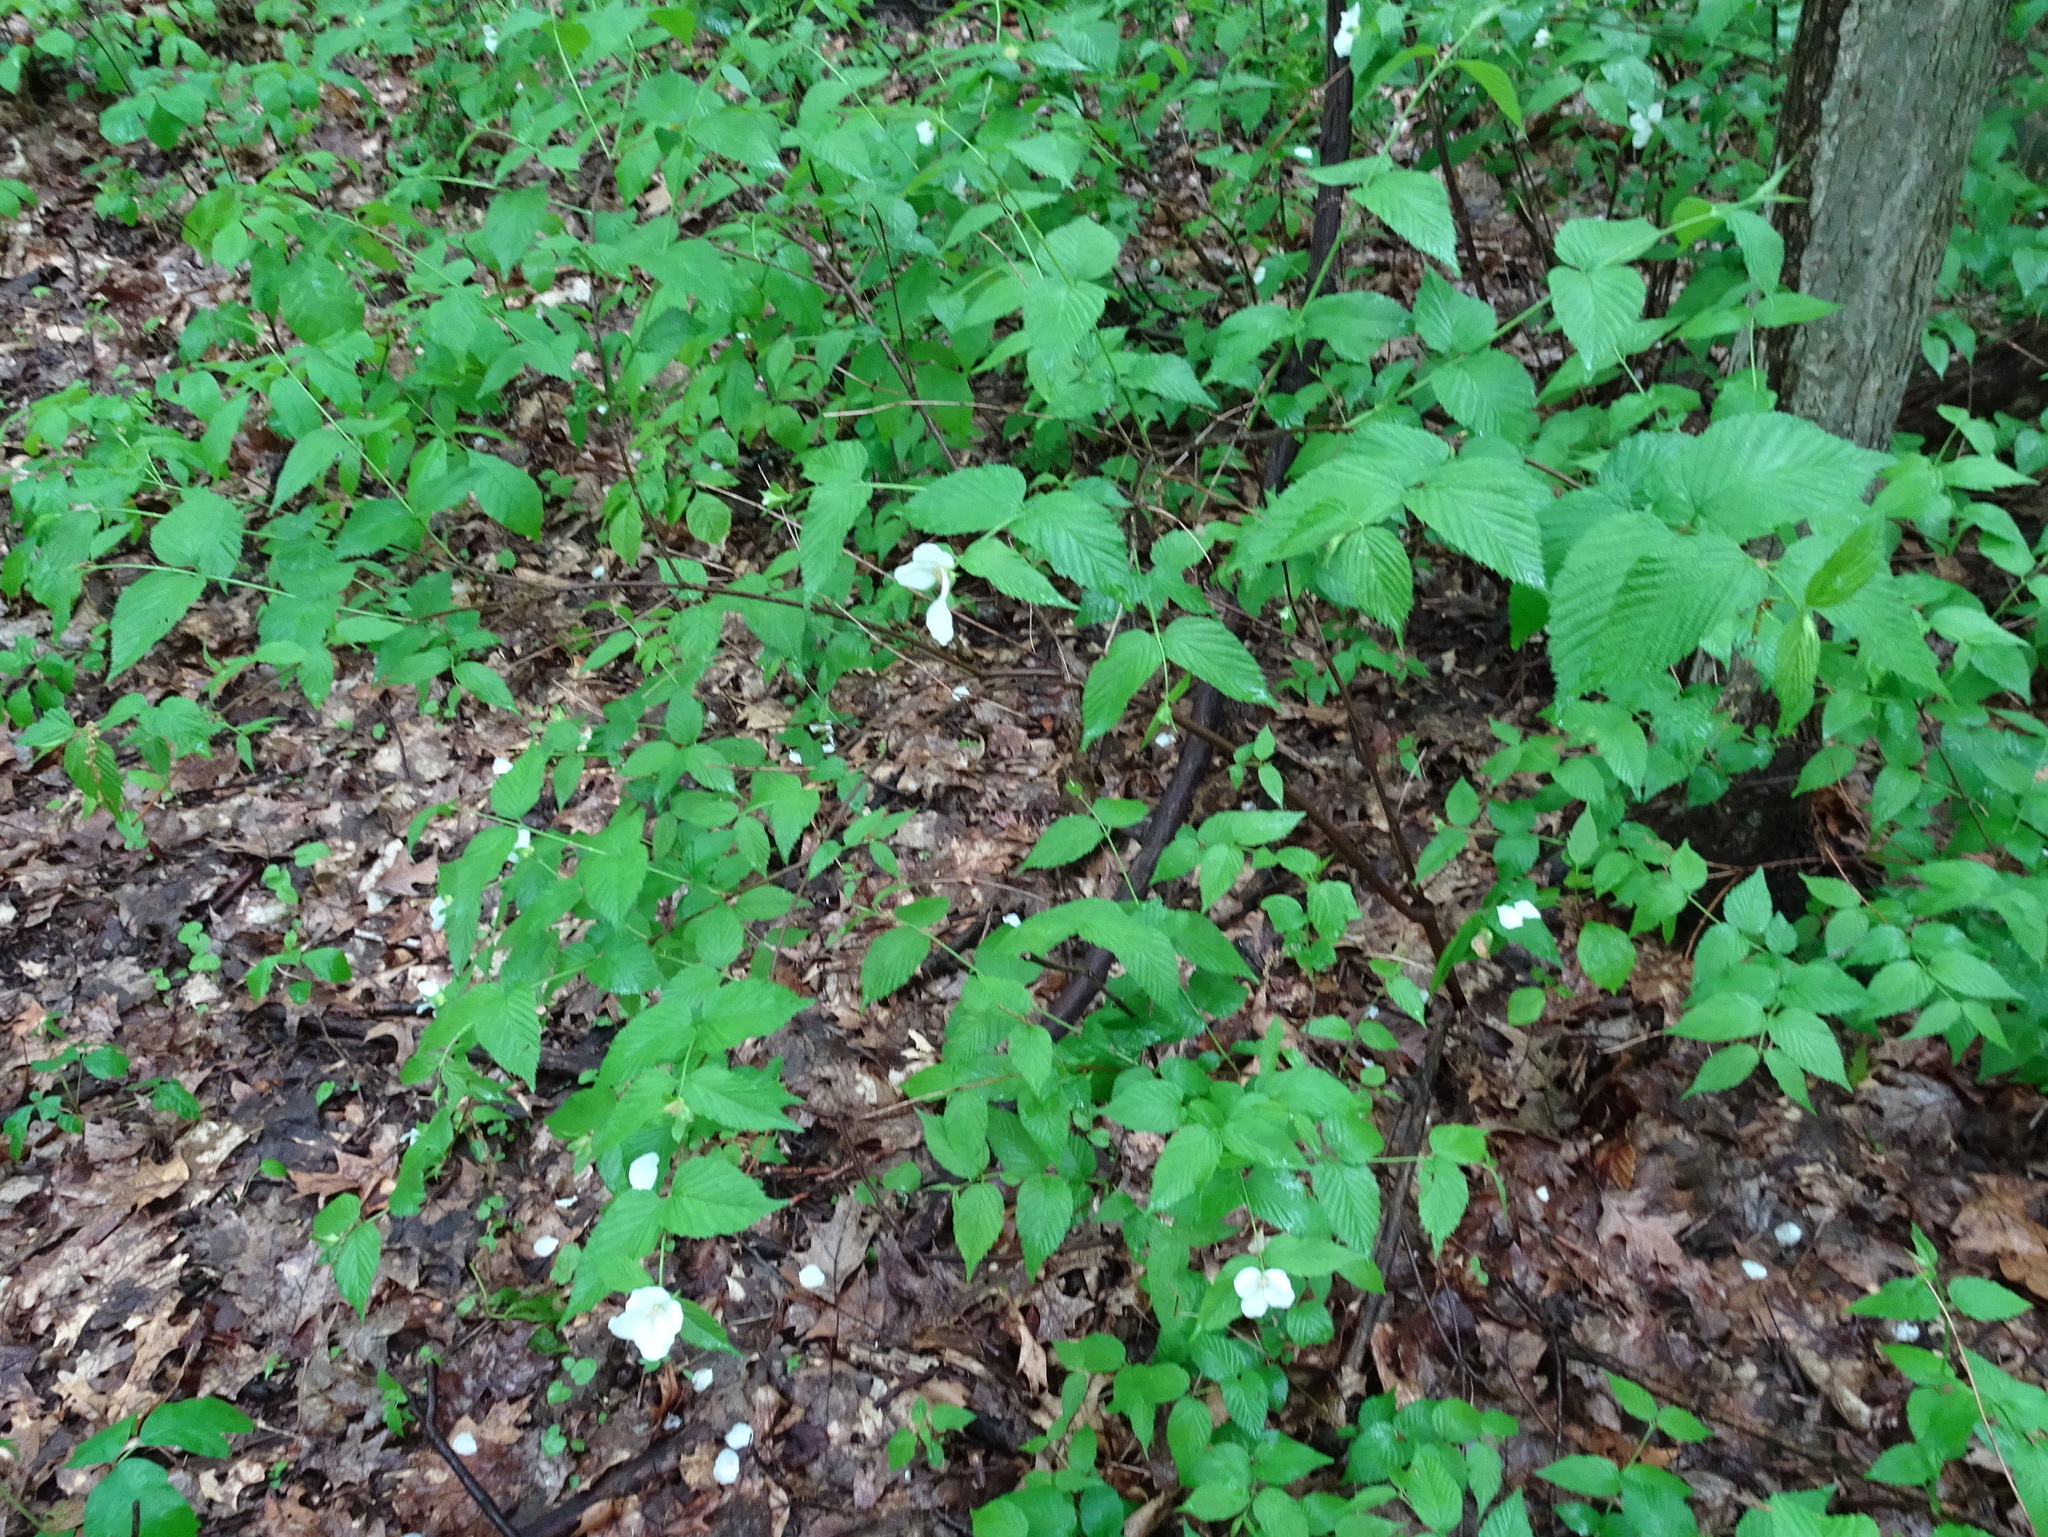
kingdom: Plantae
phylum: Tracheophyta
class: Magnoliopsida
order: Rosales
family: Rosaceae
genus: Rhodotypos
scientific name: Rhodotypos scandens
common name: Jetbead
